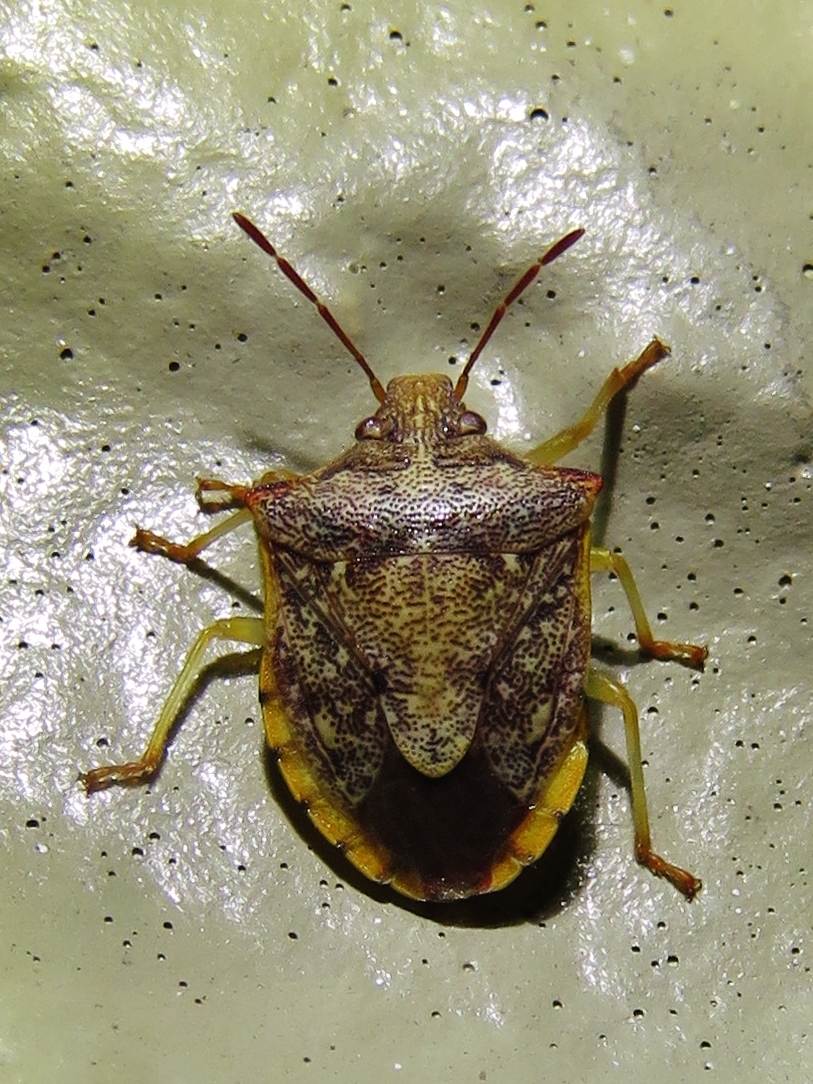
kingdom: Animalia
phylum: Arthropoda
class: Insecta
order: Hemiptera
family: Pentatomidae
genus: Dendrocoris
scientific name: Dendrocoris humeralis
